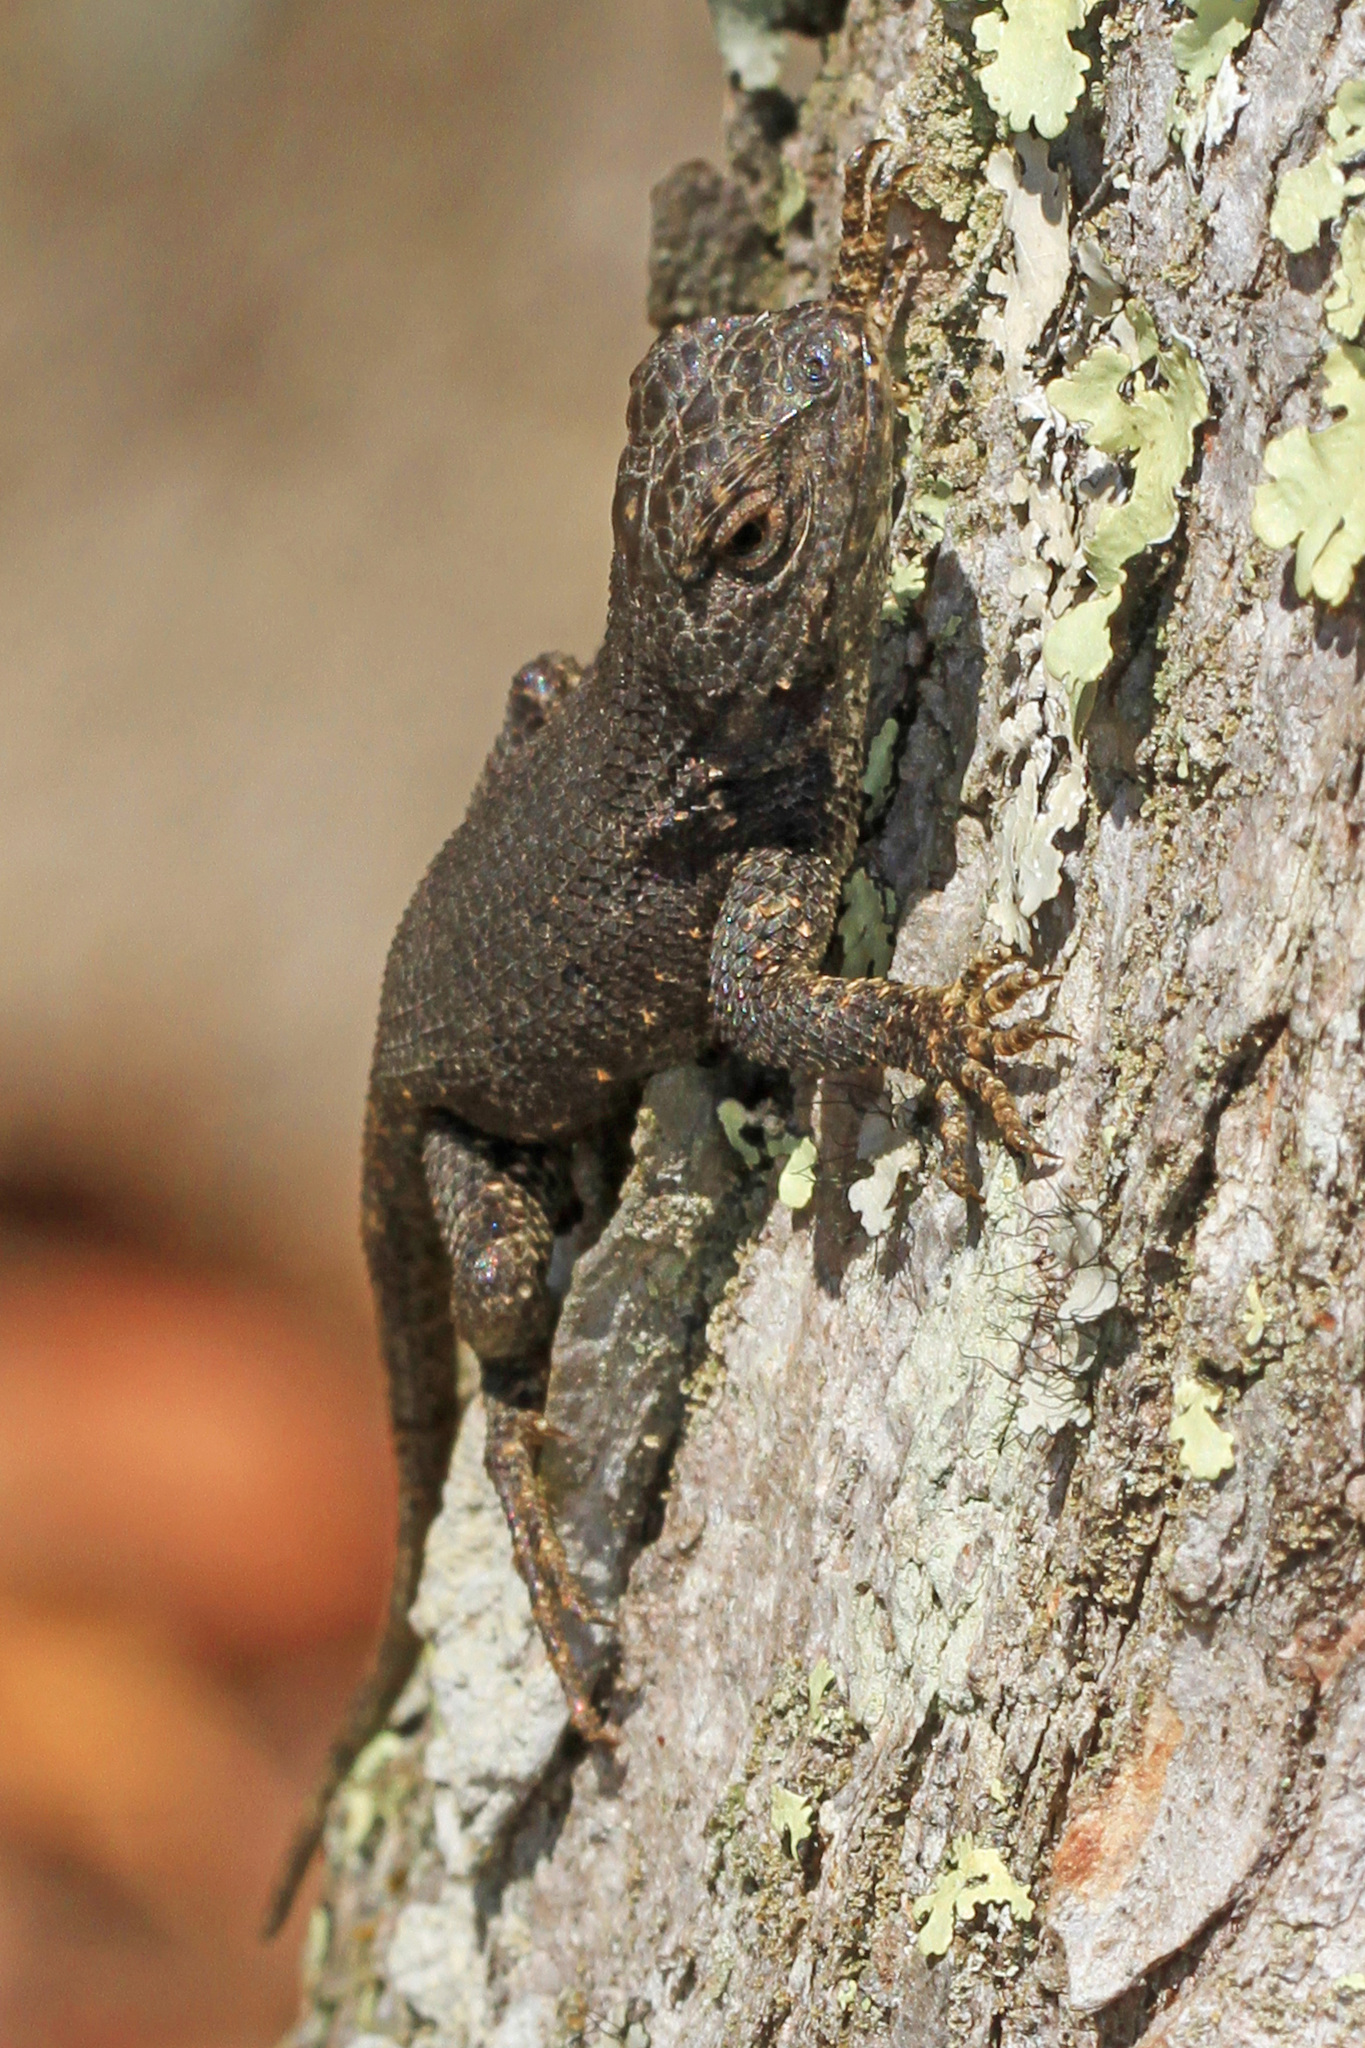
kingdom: Animalia
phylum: Chordata
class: Squamata
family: Phrynosomatidae
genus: Sceloporus
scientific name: Sceloporus undulatus
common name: Eastern fence lizard
